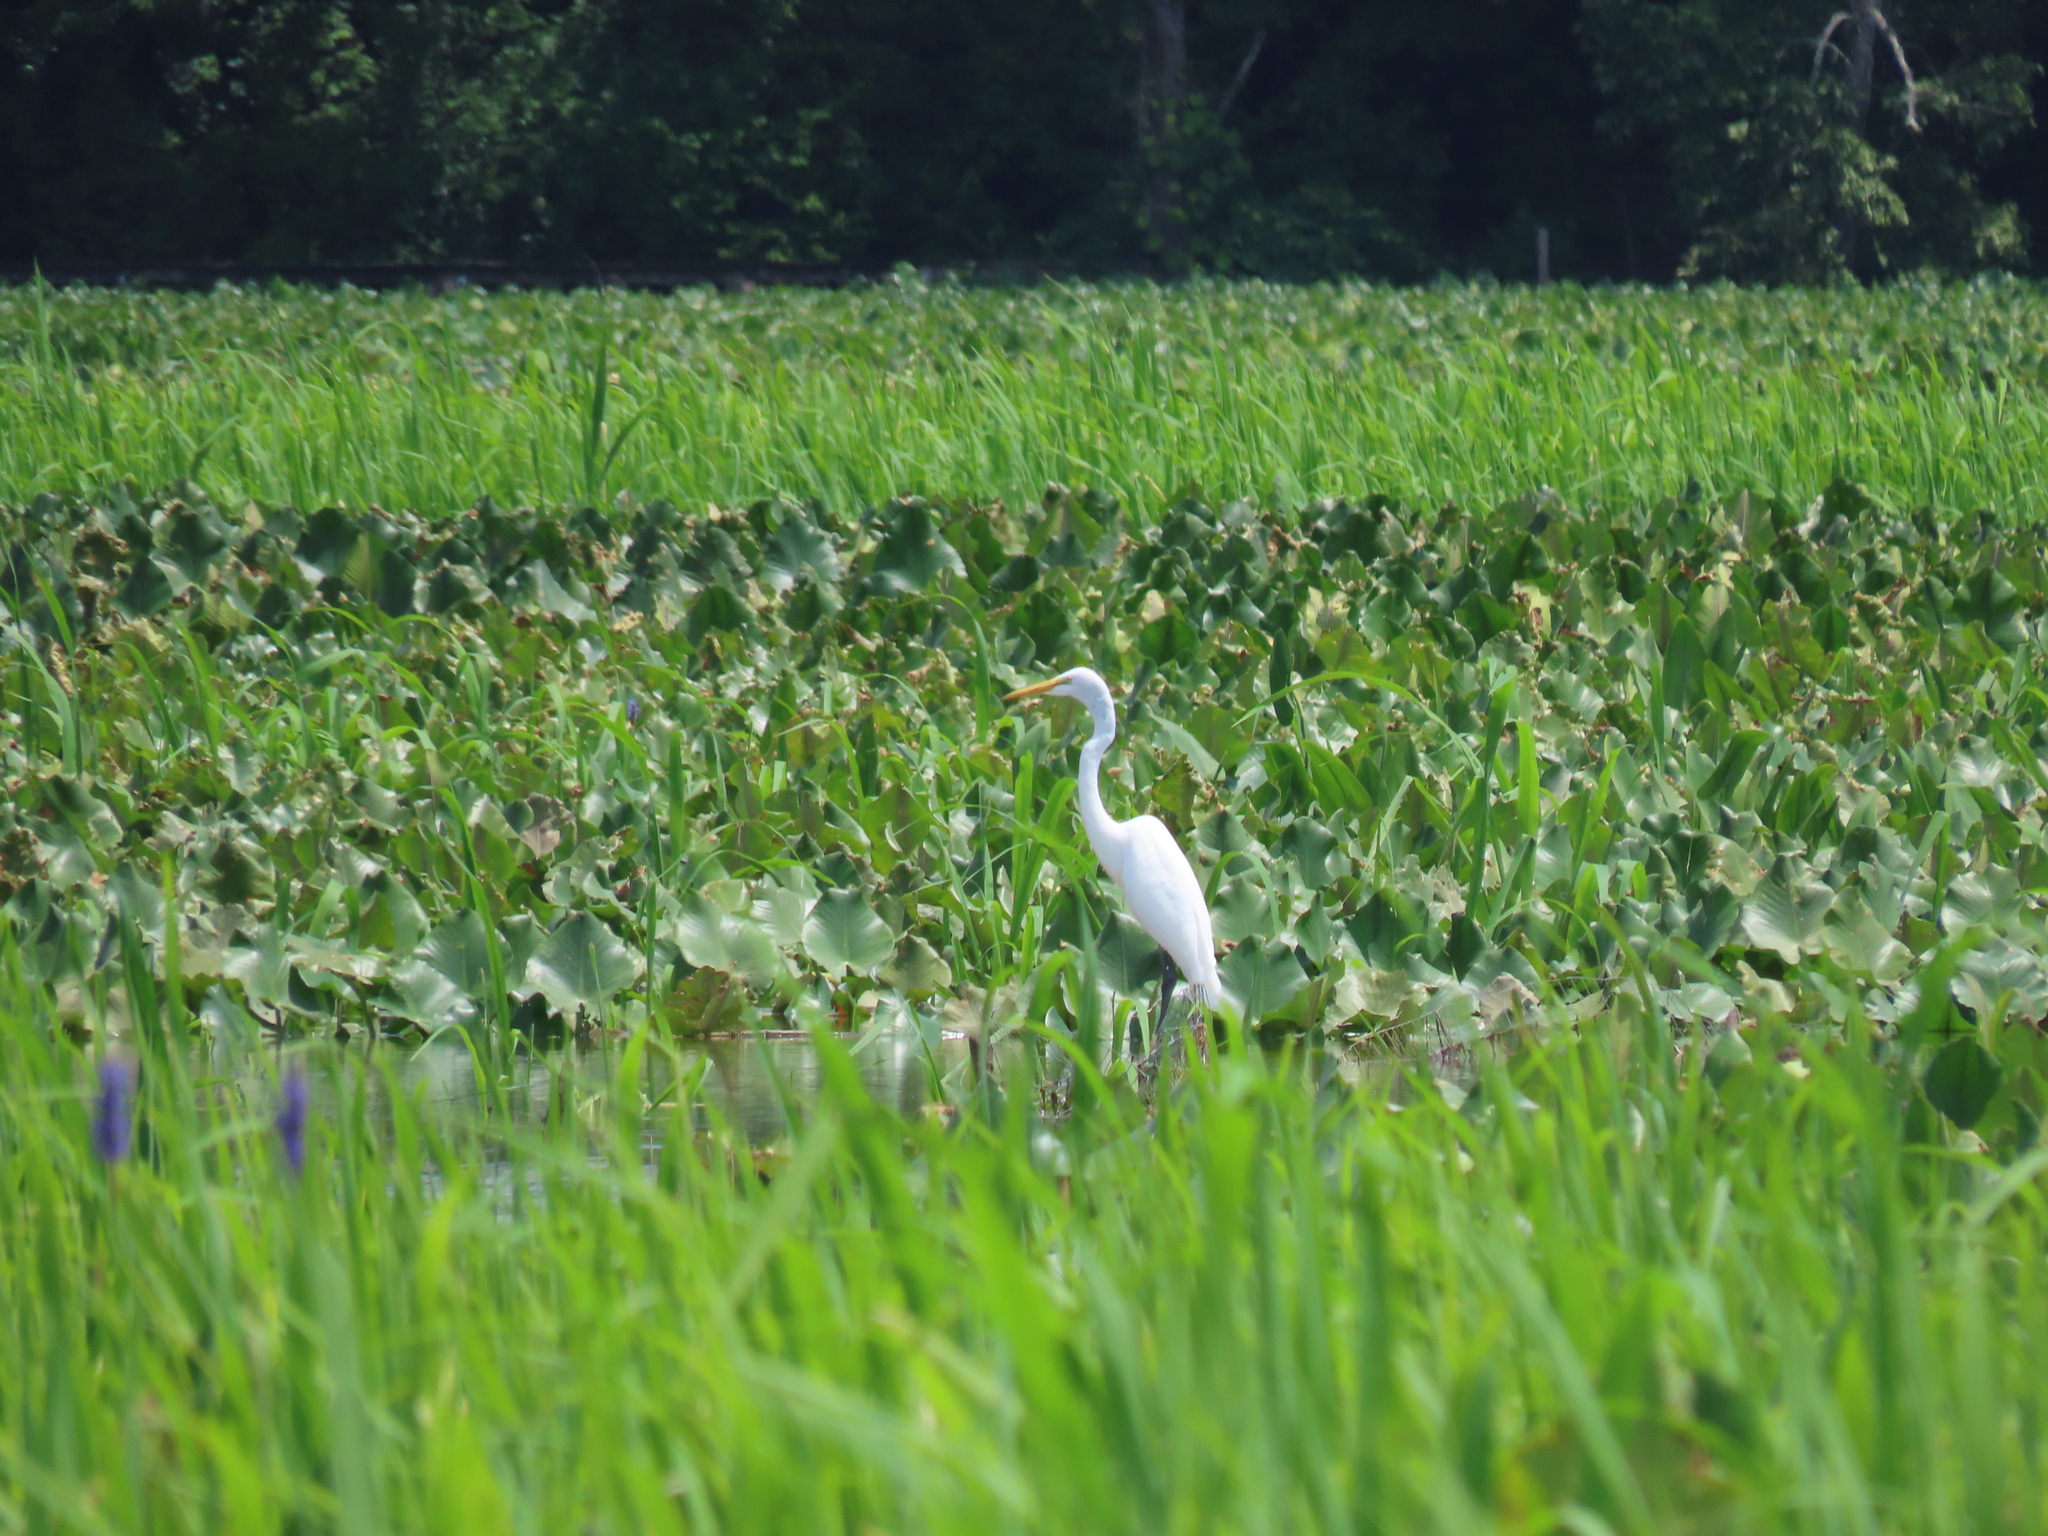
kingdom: Animalia
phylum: Chordata
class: Aves
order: Pelecaniformes
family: Ardeidae
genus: Ardea
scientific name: Ardea alba
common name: Great egret
